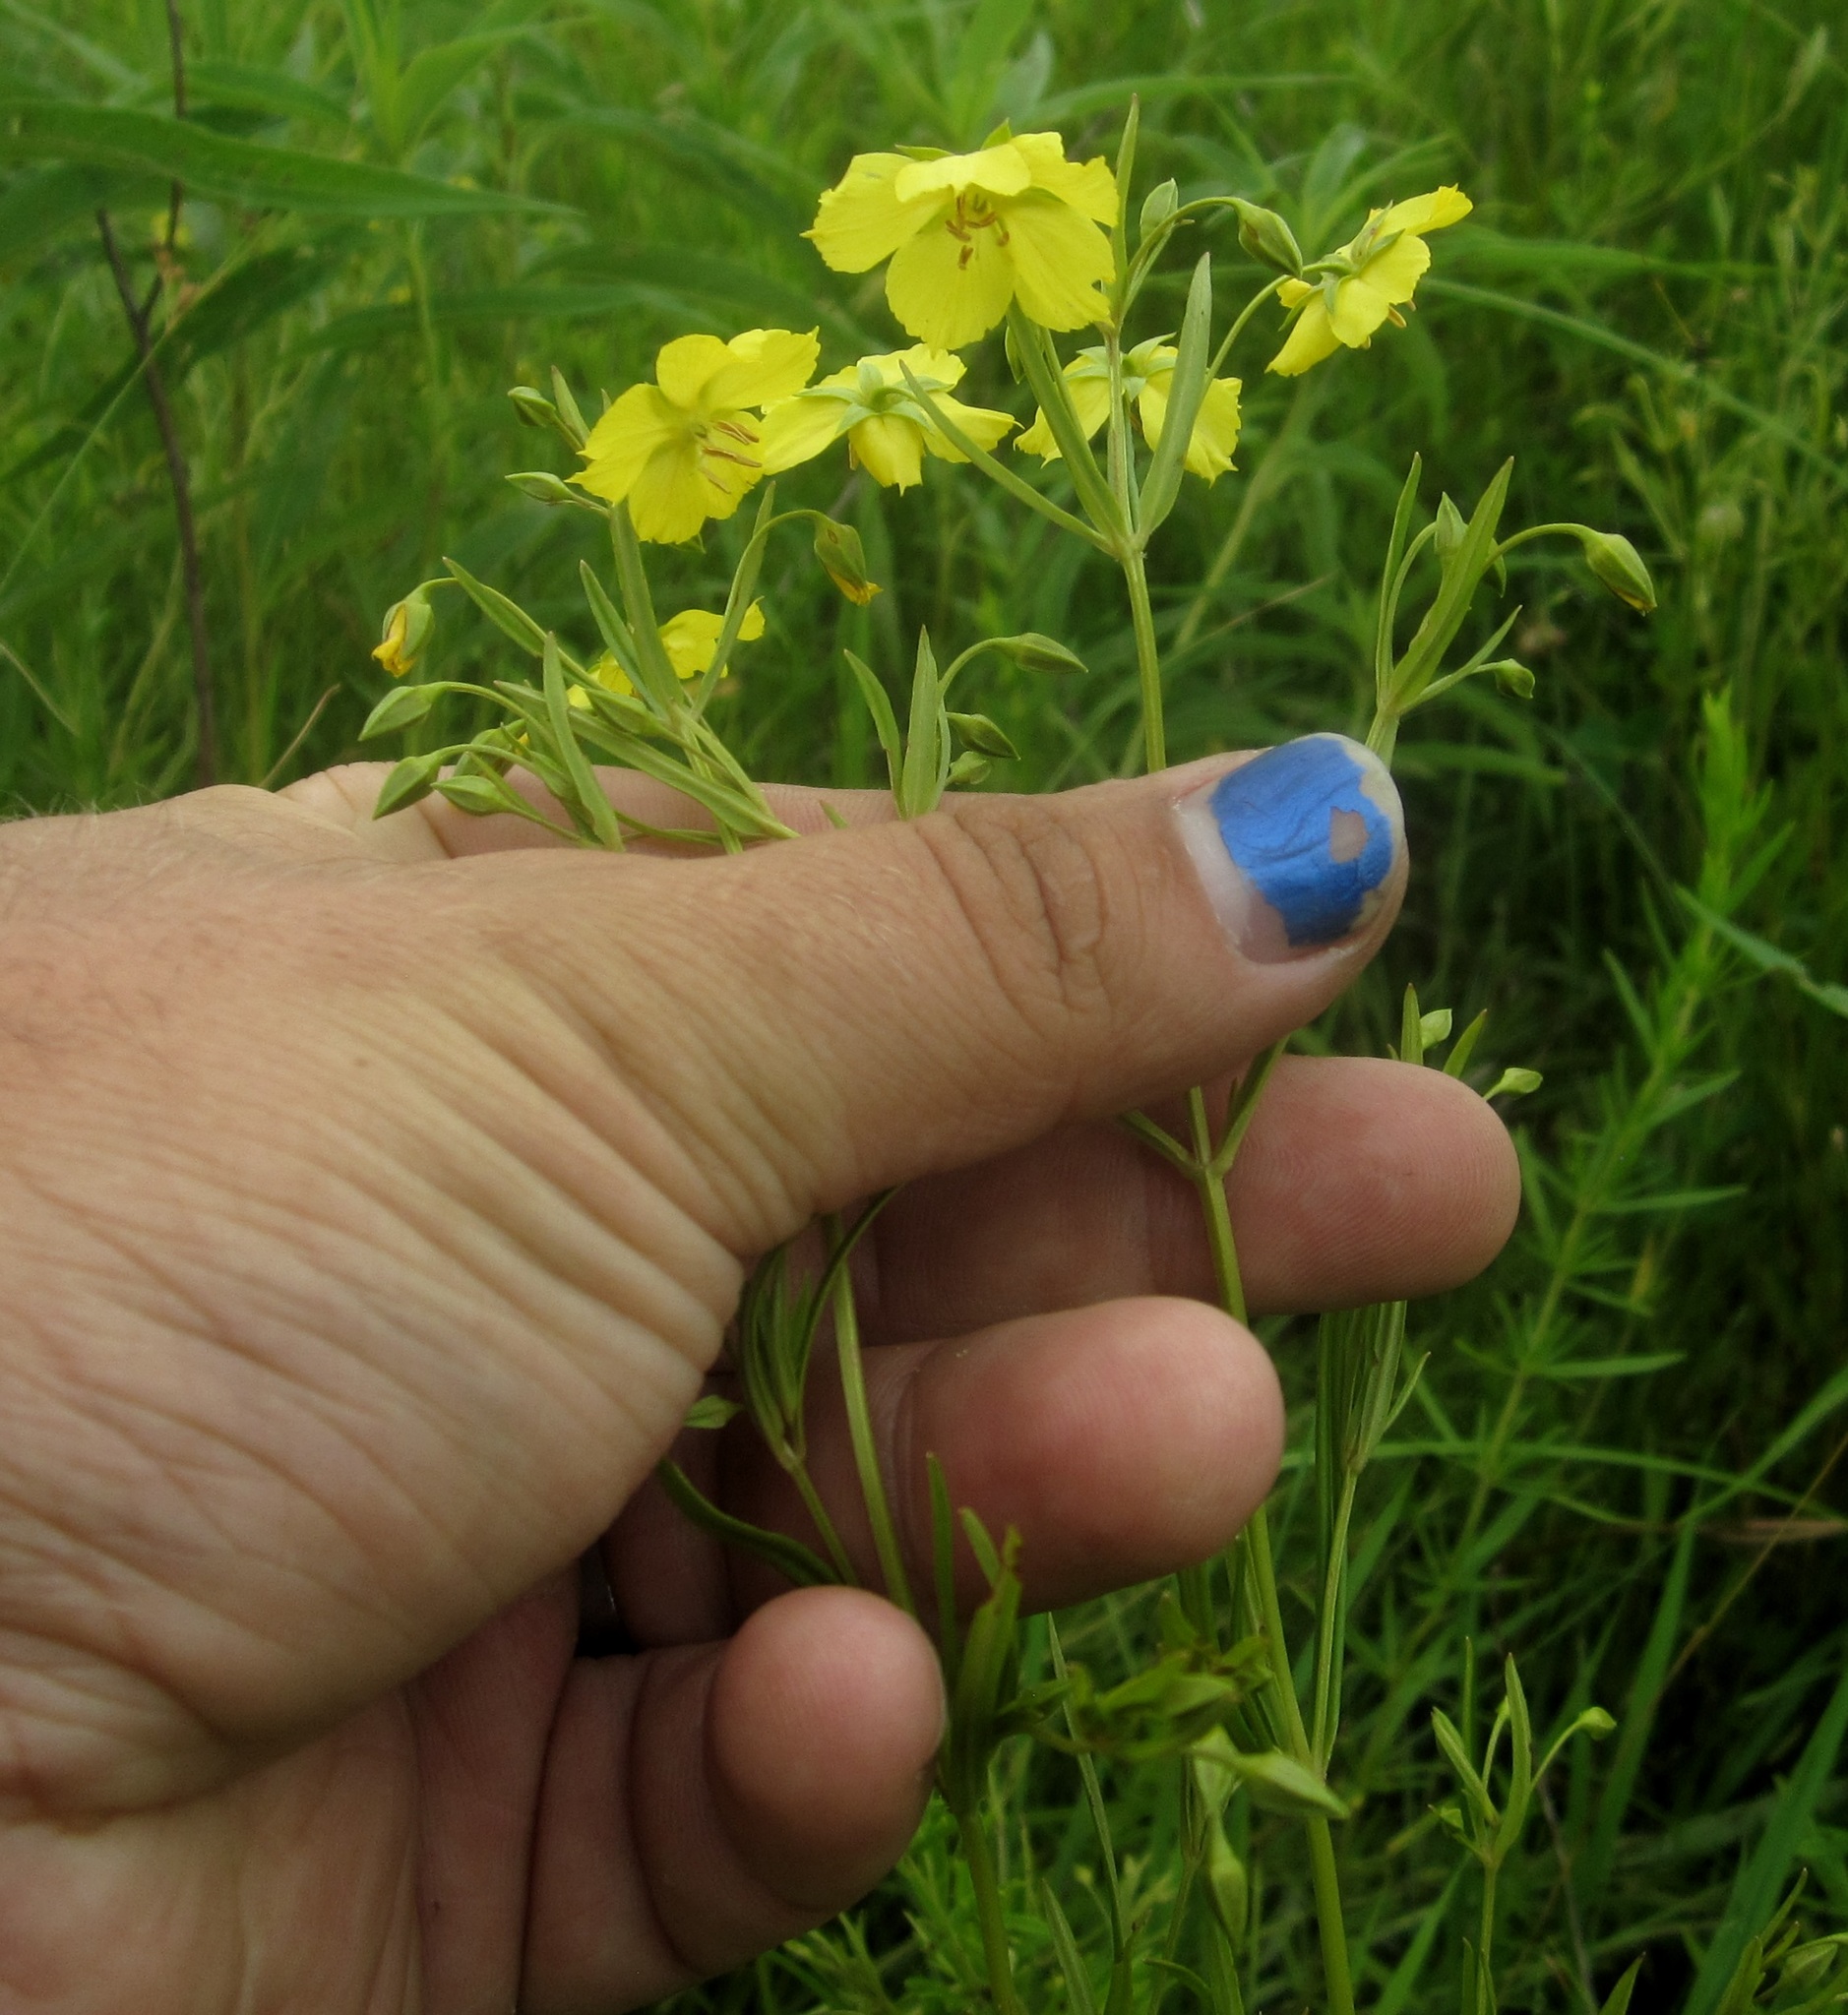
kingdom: Plantae
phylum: Tracheophyta
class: Magnoliopsida
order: Ericales
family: Primulaceae
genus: Lysimachia
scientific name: Lysimachia quadriflora
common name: Four-flowered loosestrife
